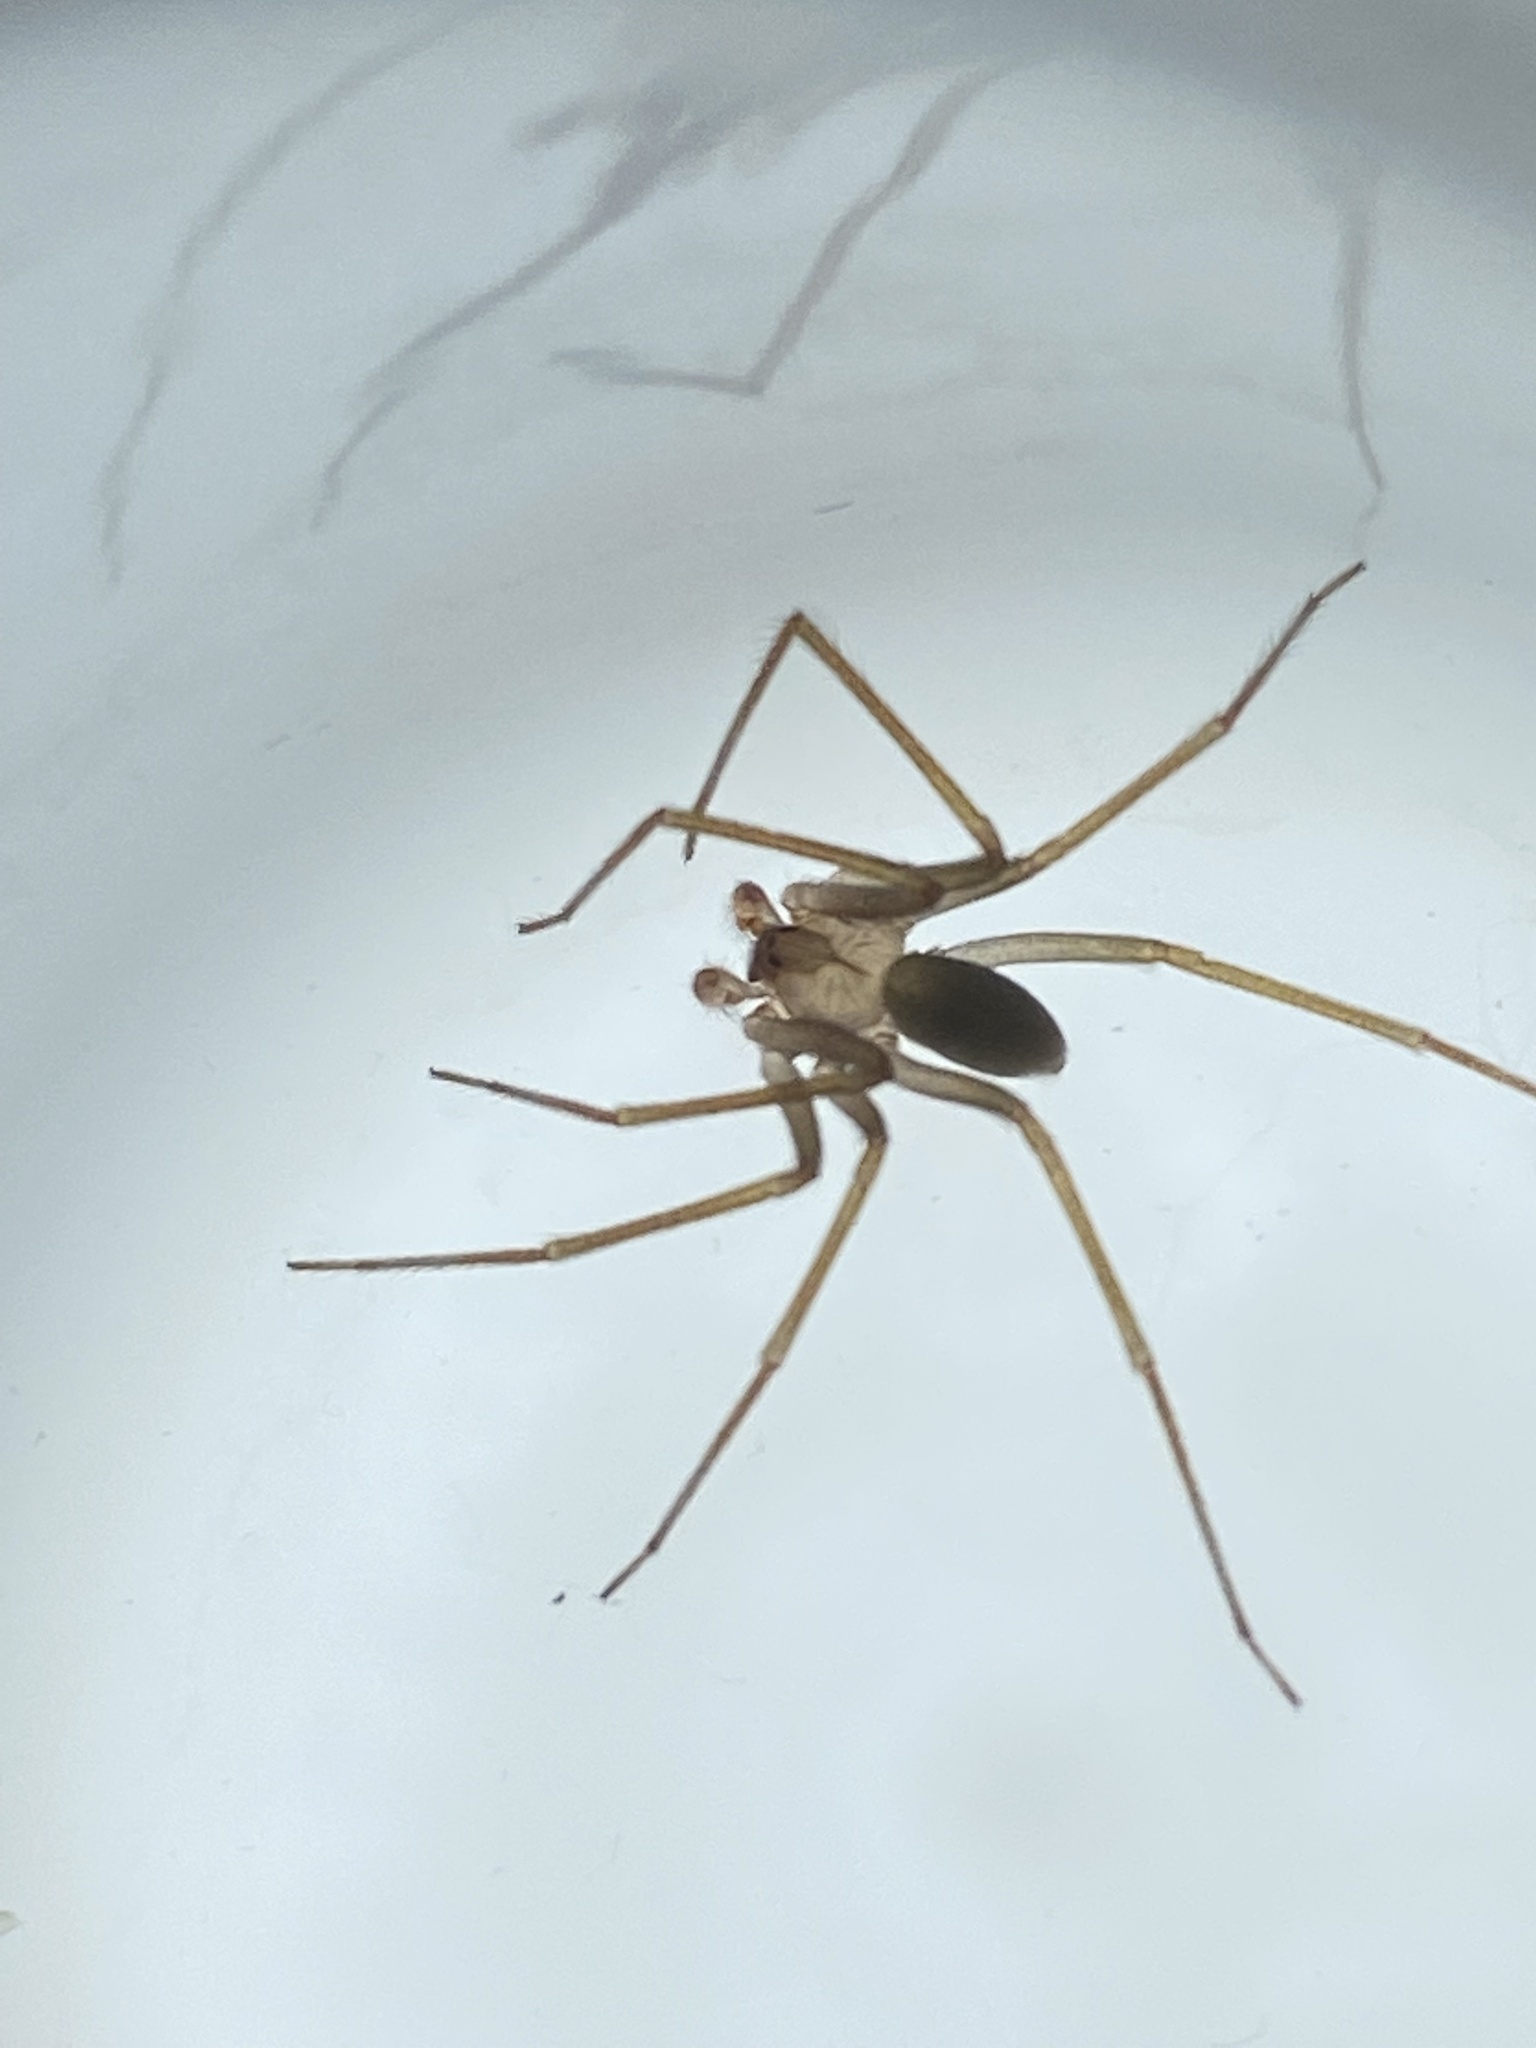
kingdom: Animalia
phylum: Arthropoda
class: Arachnida
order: Araneae
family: Sicariidae
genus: Loxosceles
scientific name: Loxosceles rufescens
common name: Mediterranean recluse spider
